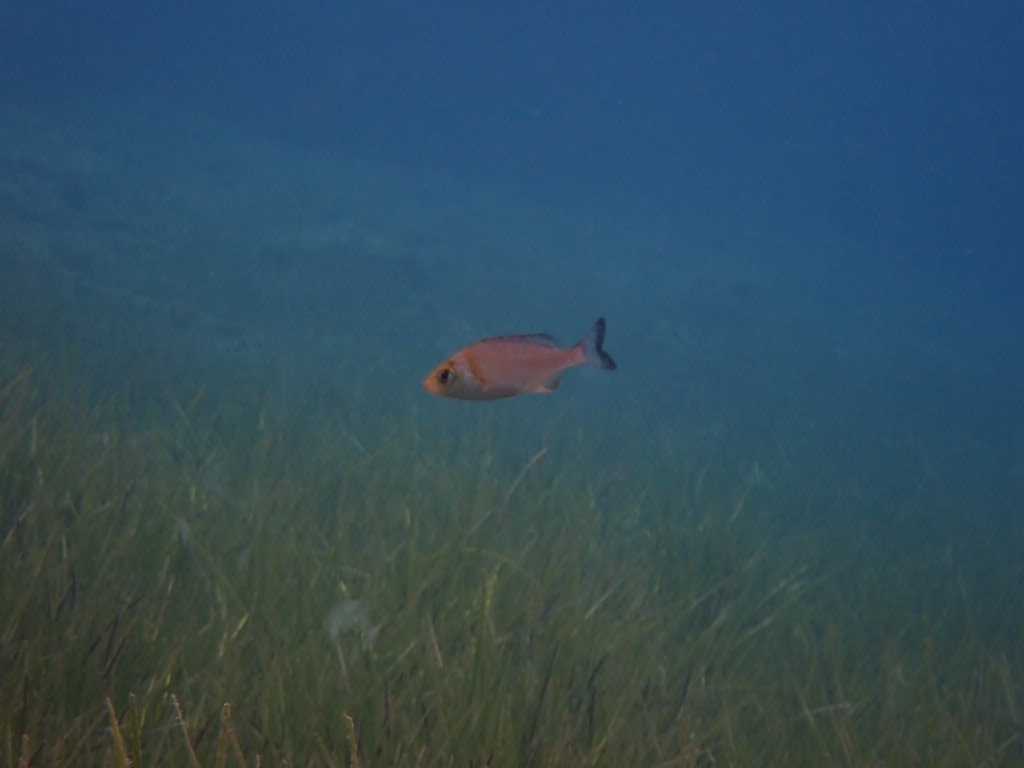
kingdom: Animalia
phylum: Chordata
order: Perciformes
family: Sparidae
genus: Spondyliosoma
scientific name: Spondyliosoma cantharus
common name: Black seabream
